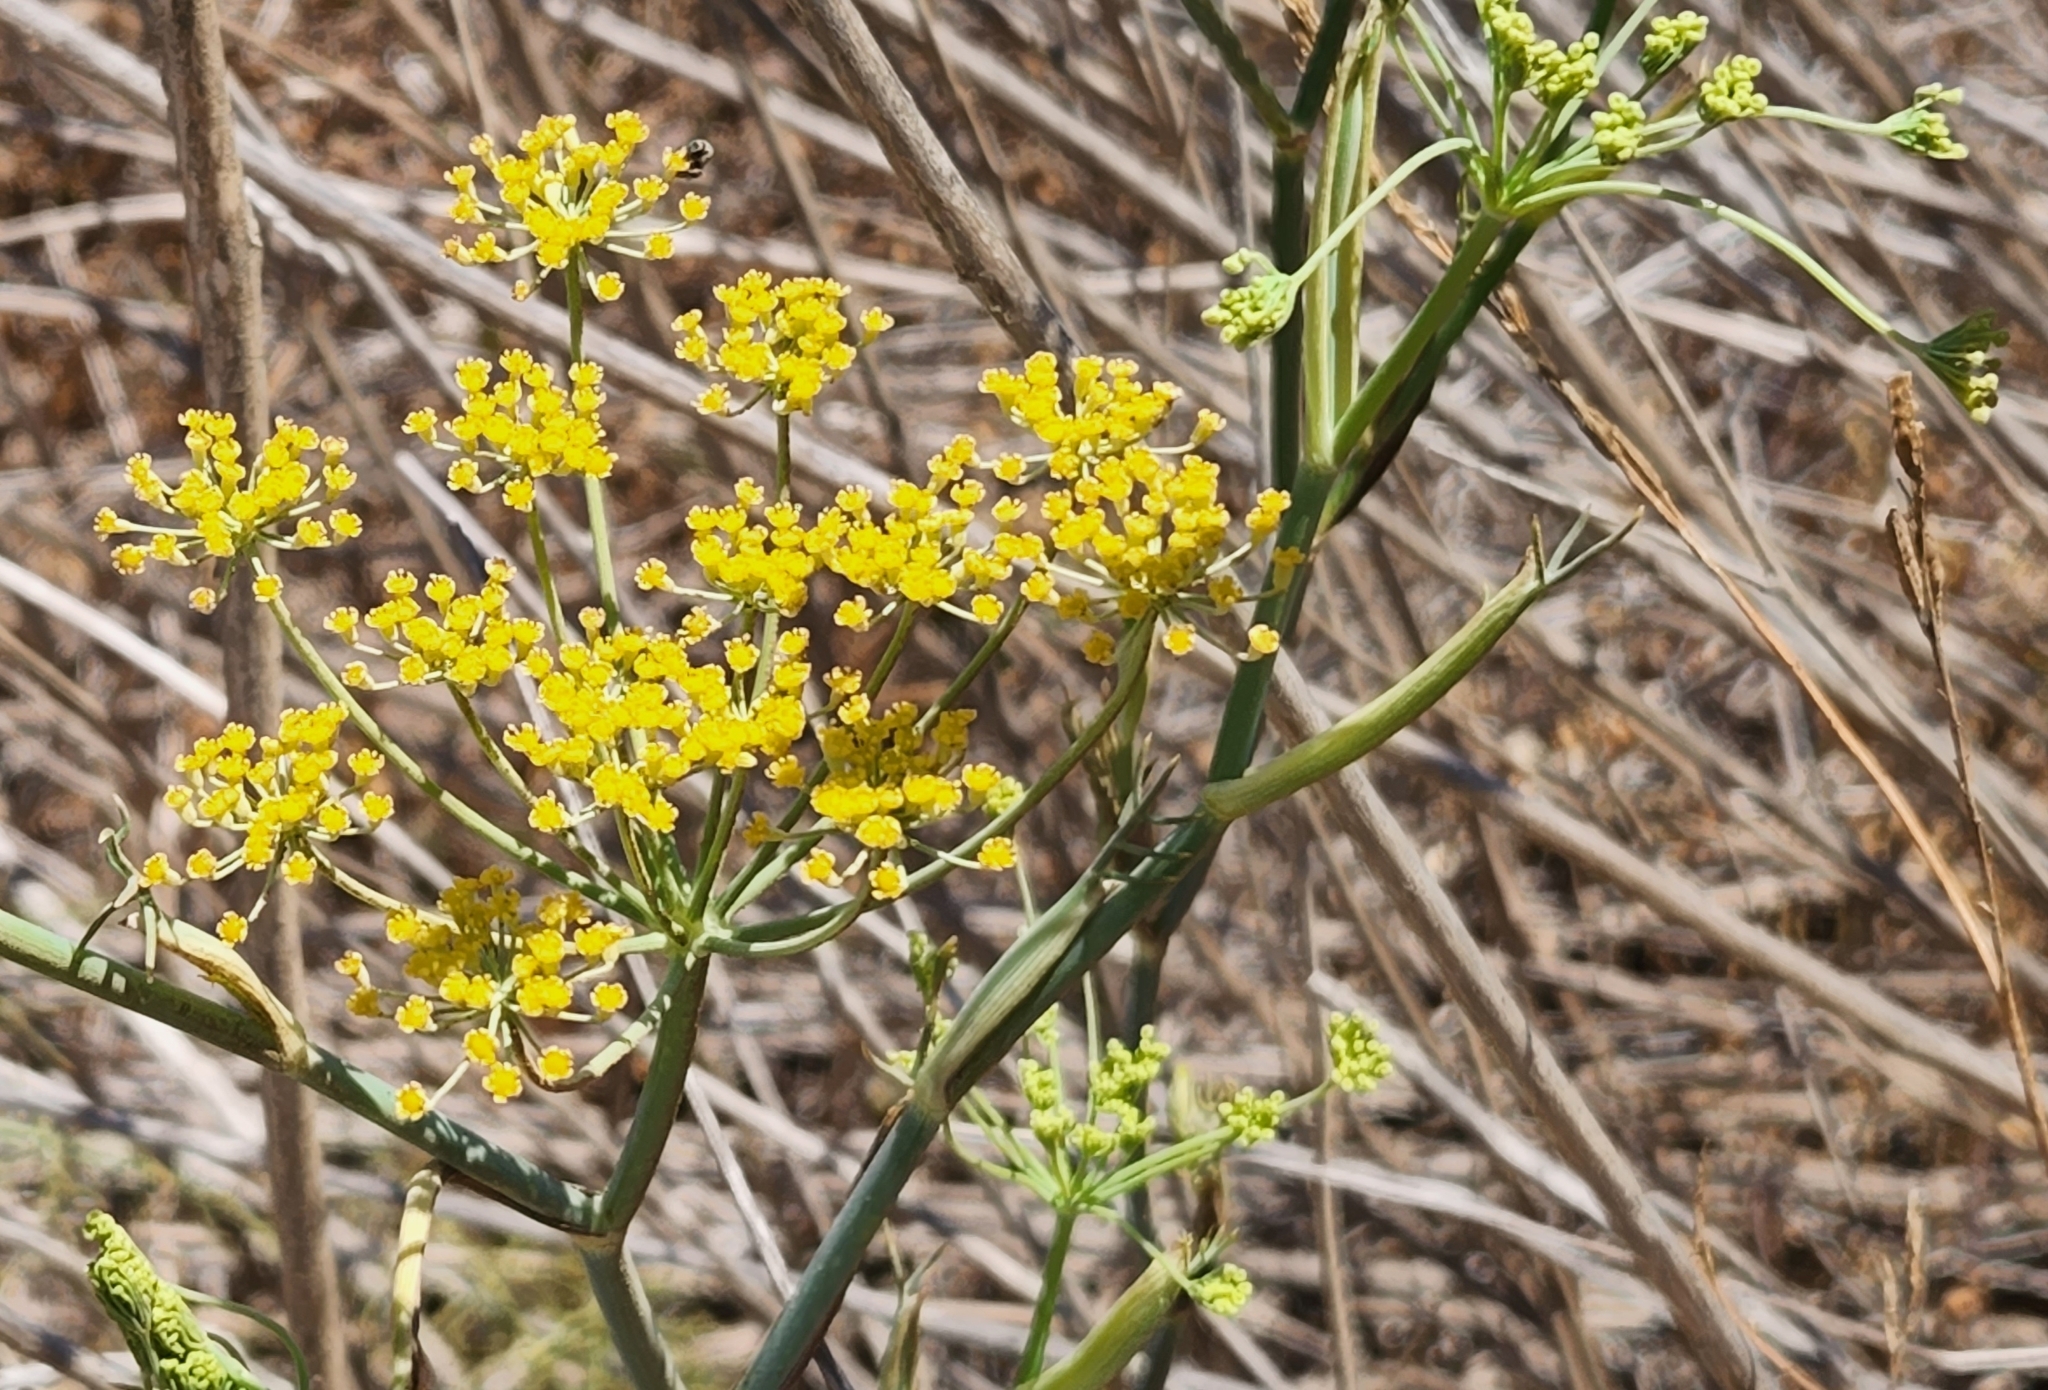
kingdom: Plantae
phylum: Tracheophyta
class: Magnoliopsida
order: Apiales
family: Apiaceae
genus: Foeniculum
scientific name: Foeniculum vulgare
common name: Fennel
